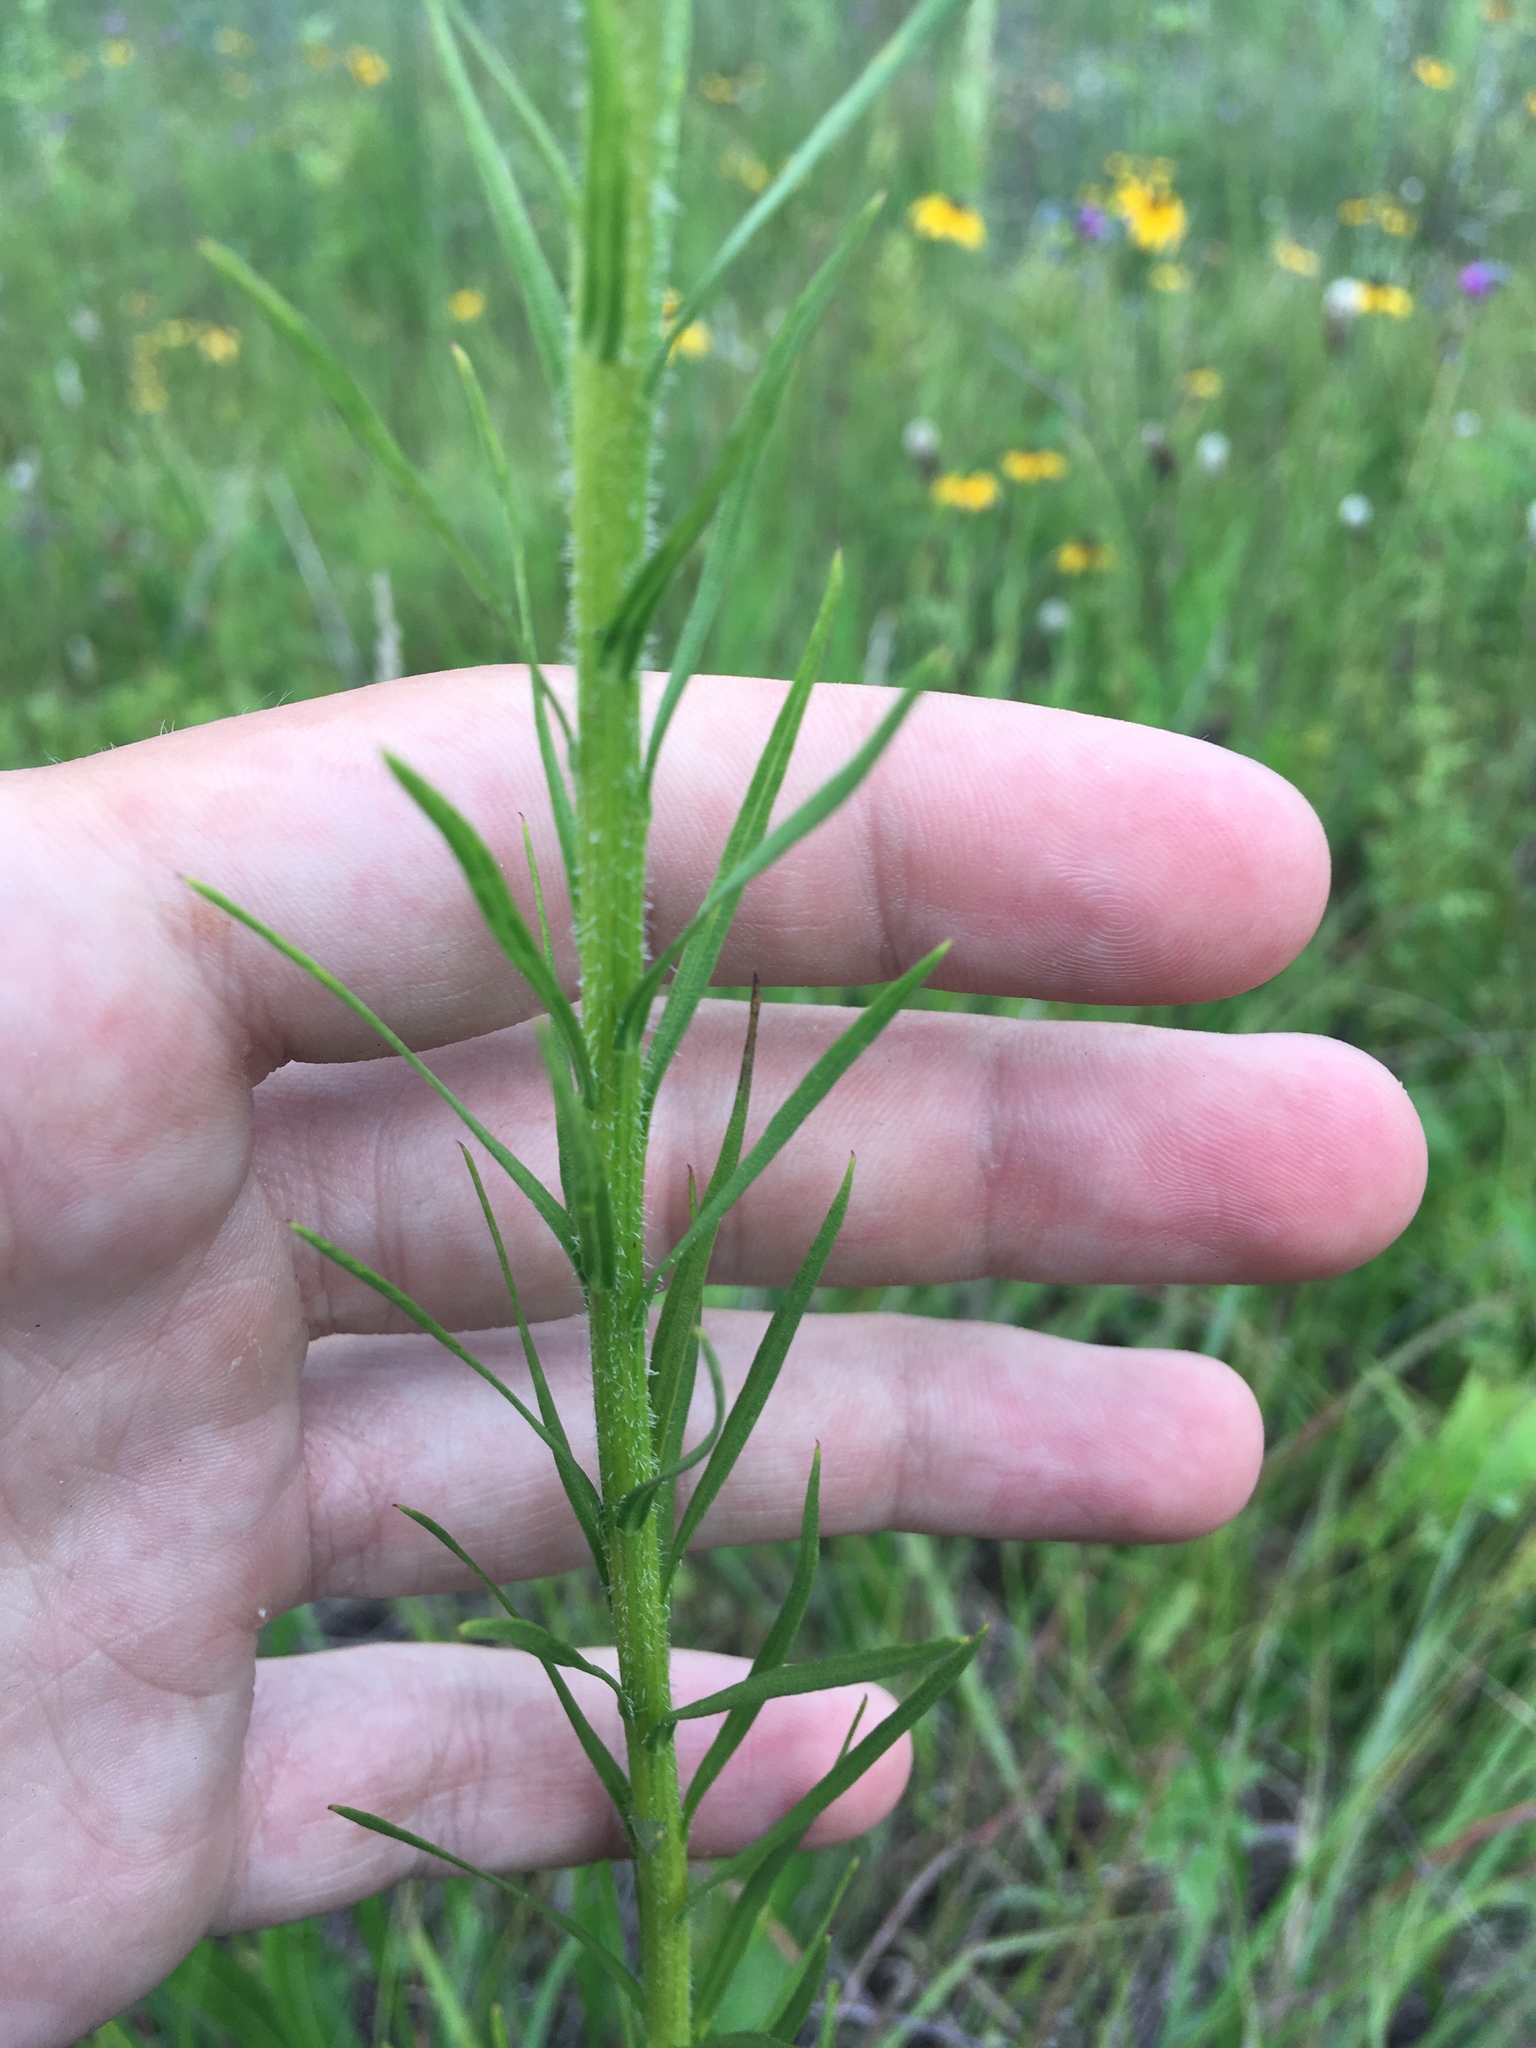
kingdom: Plantae
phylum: Tracheophyta
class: Magnoliopsida
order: Asterales
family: Asteraceae
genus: Liatris
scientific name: Liatris pycnostachya
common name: Cattail gayfeather
